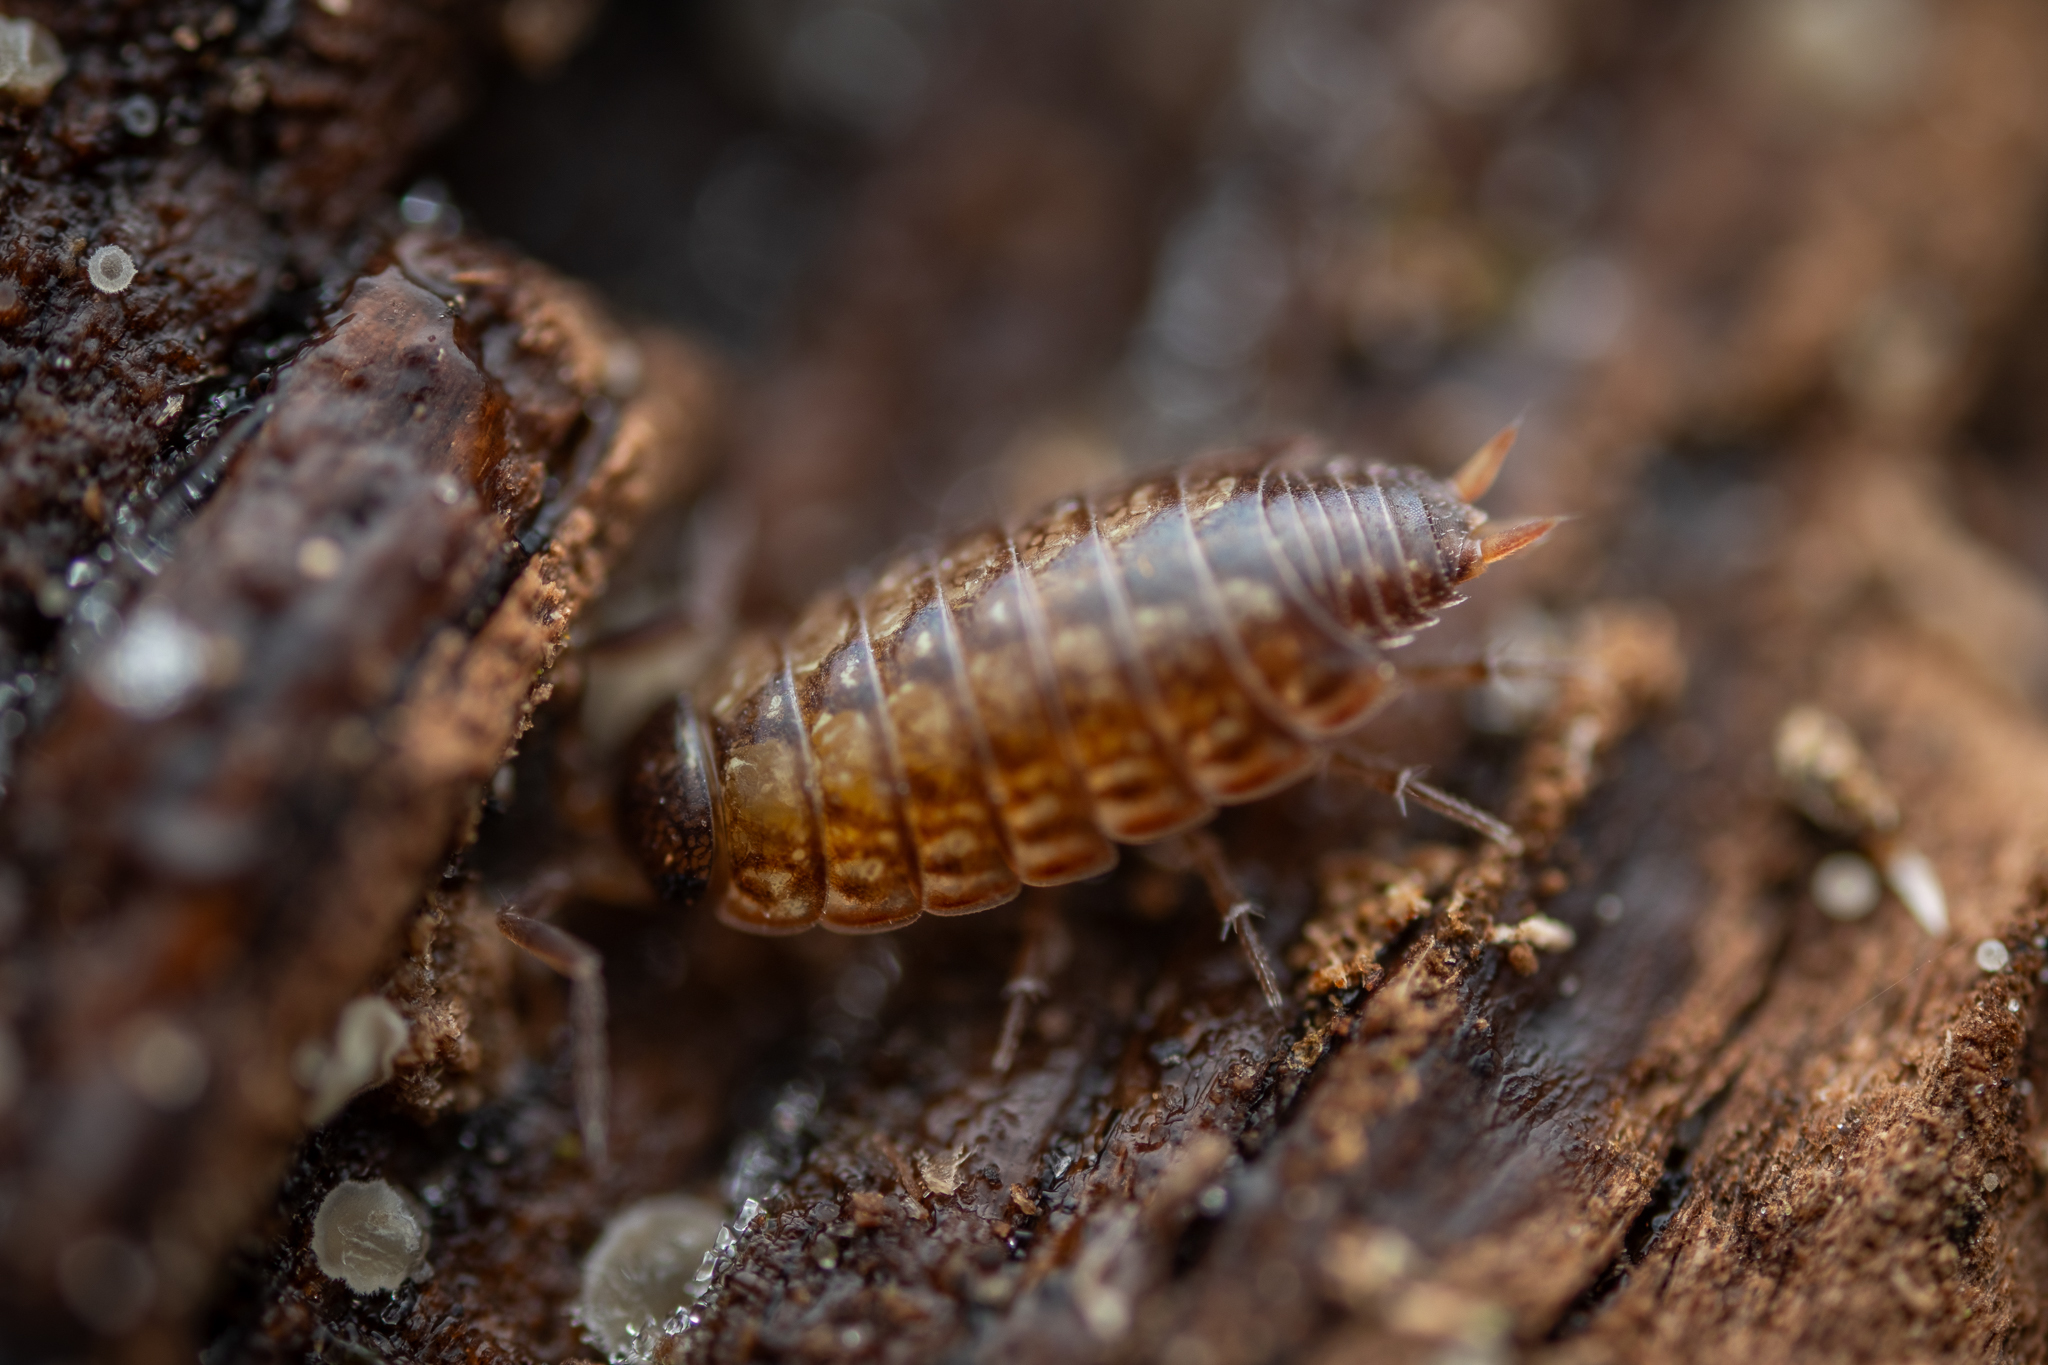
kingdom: Animalia
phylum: Arthropoda
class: Malacostraca
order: Isopoda
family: Philosciidae
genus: Philoscia
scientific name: Philoscia muscorum
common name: Common striped woodlouse
